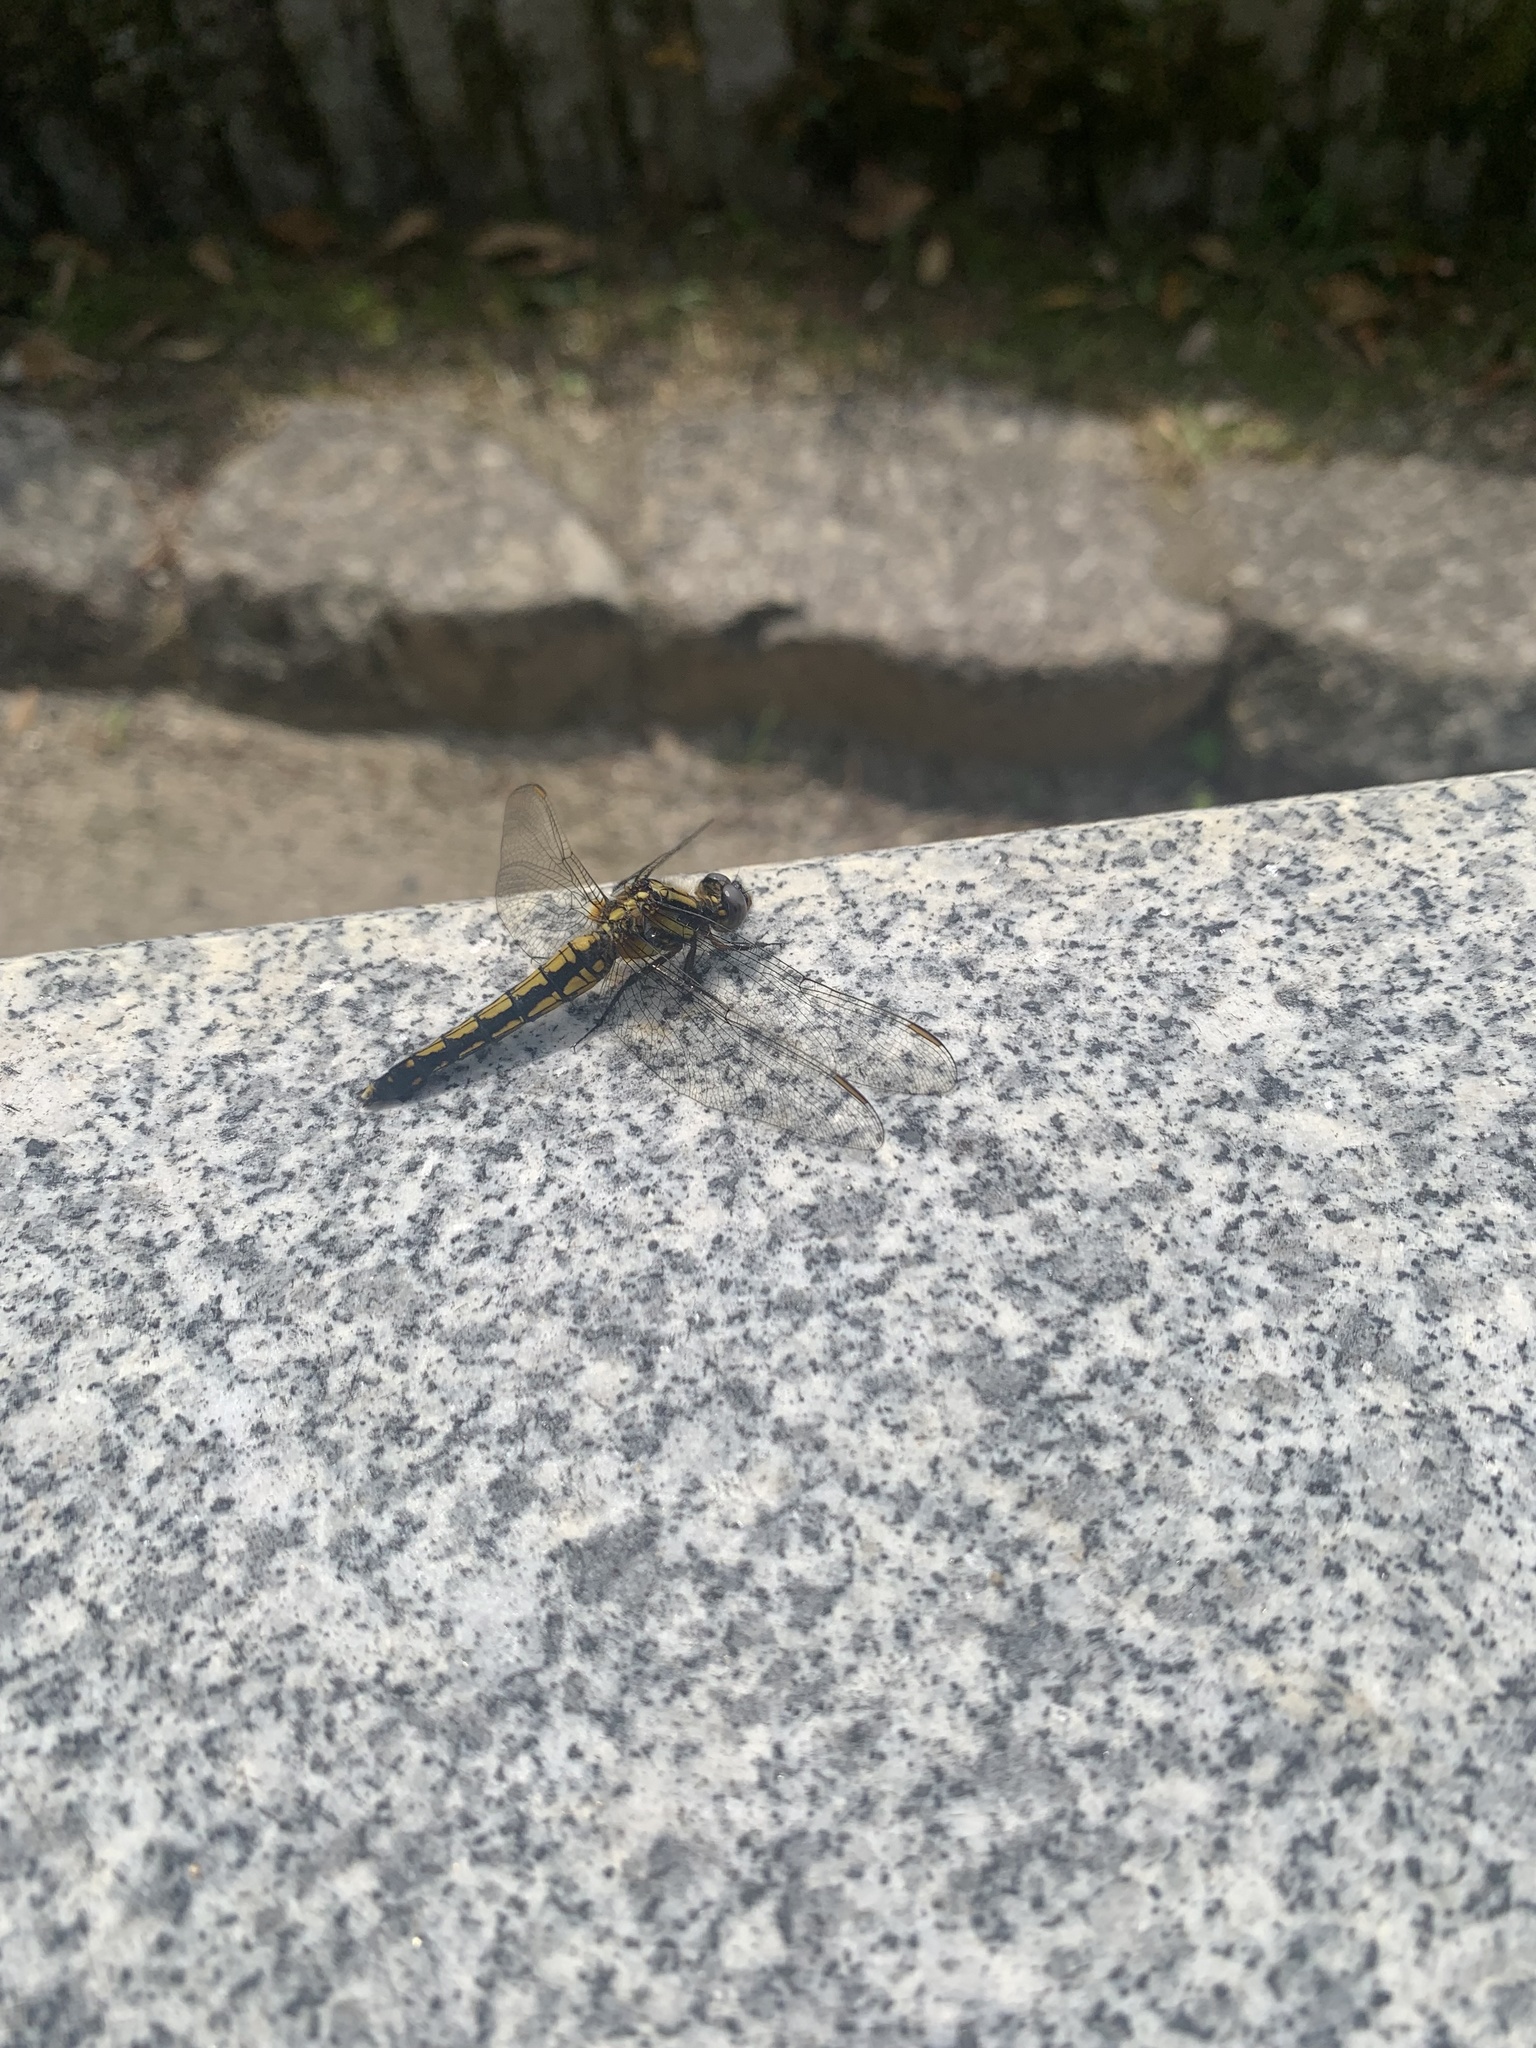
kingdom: Animalia
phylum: Arthropoda
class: Insecta
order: Odonata
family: Libellulidae
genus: Orthetrum
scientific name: Orthetrum japonicum
